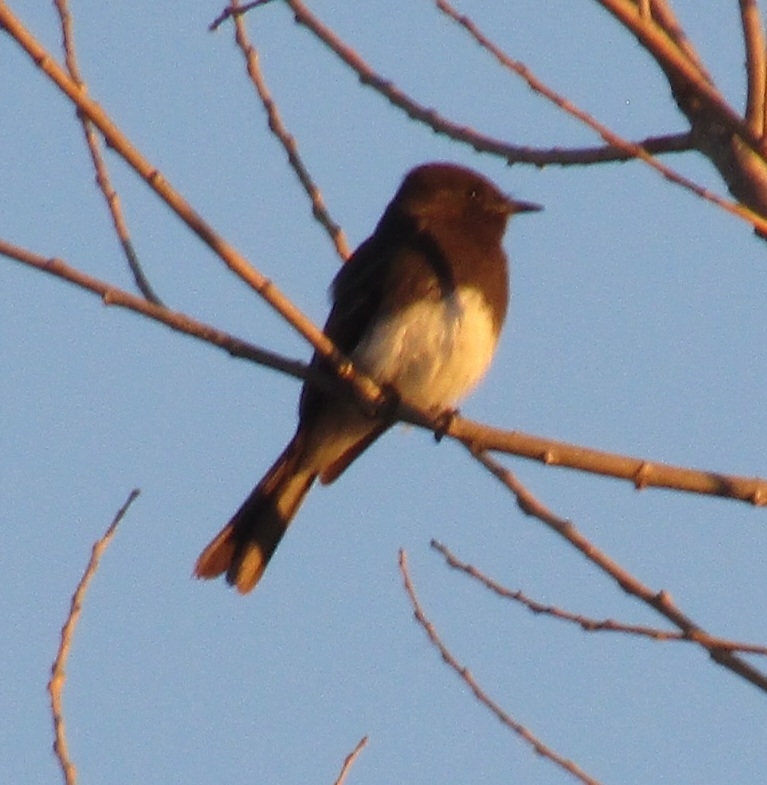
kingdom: Animalia
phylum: Chordata
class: Aves
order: Passeriformes
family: Tyrannidae
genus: Sayornis
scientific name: Sayornis nigricans
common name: Black phoebe
